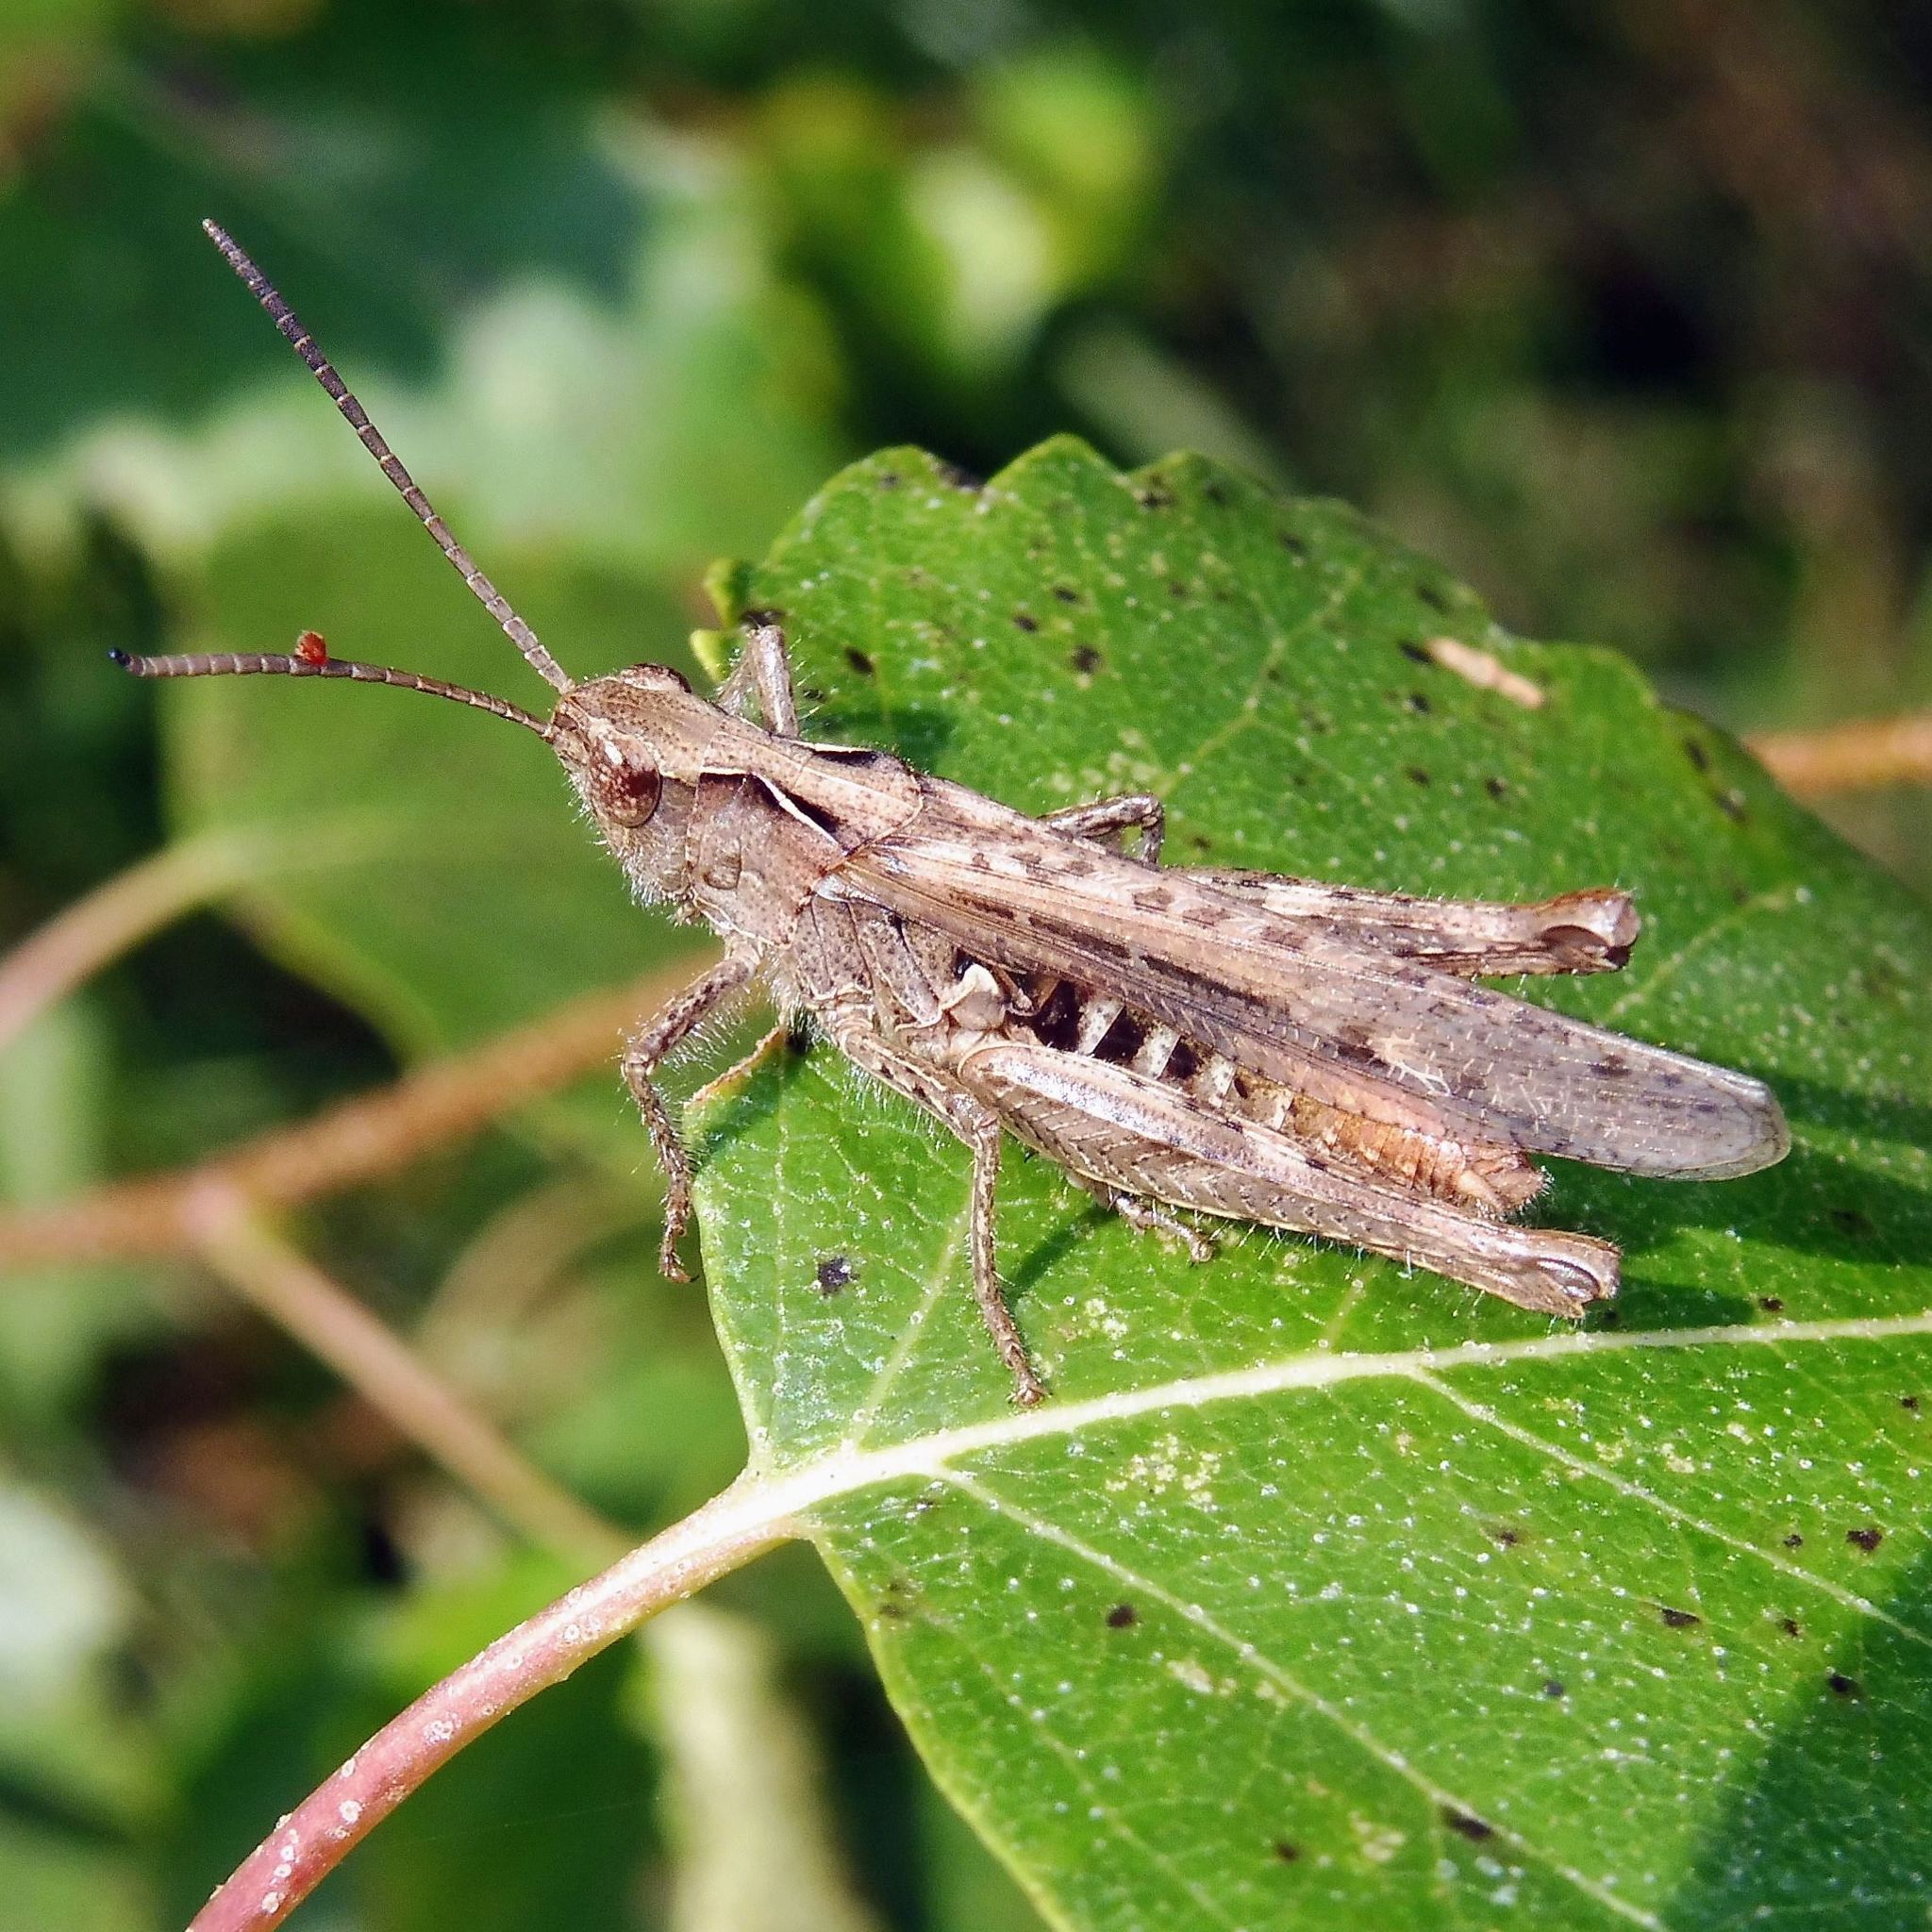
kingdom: Animalia
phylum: Arthropoda
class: Insecta
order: Orthoptera
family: Acrididae
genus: Chorthippus
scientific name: Chorthippus brunneus
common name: Field grasshopper
